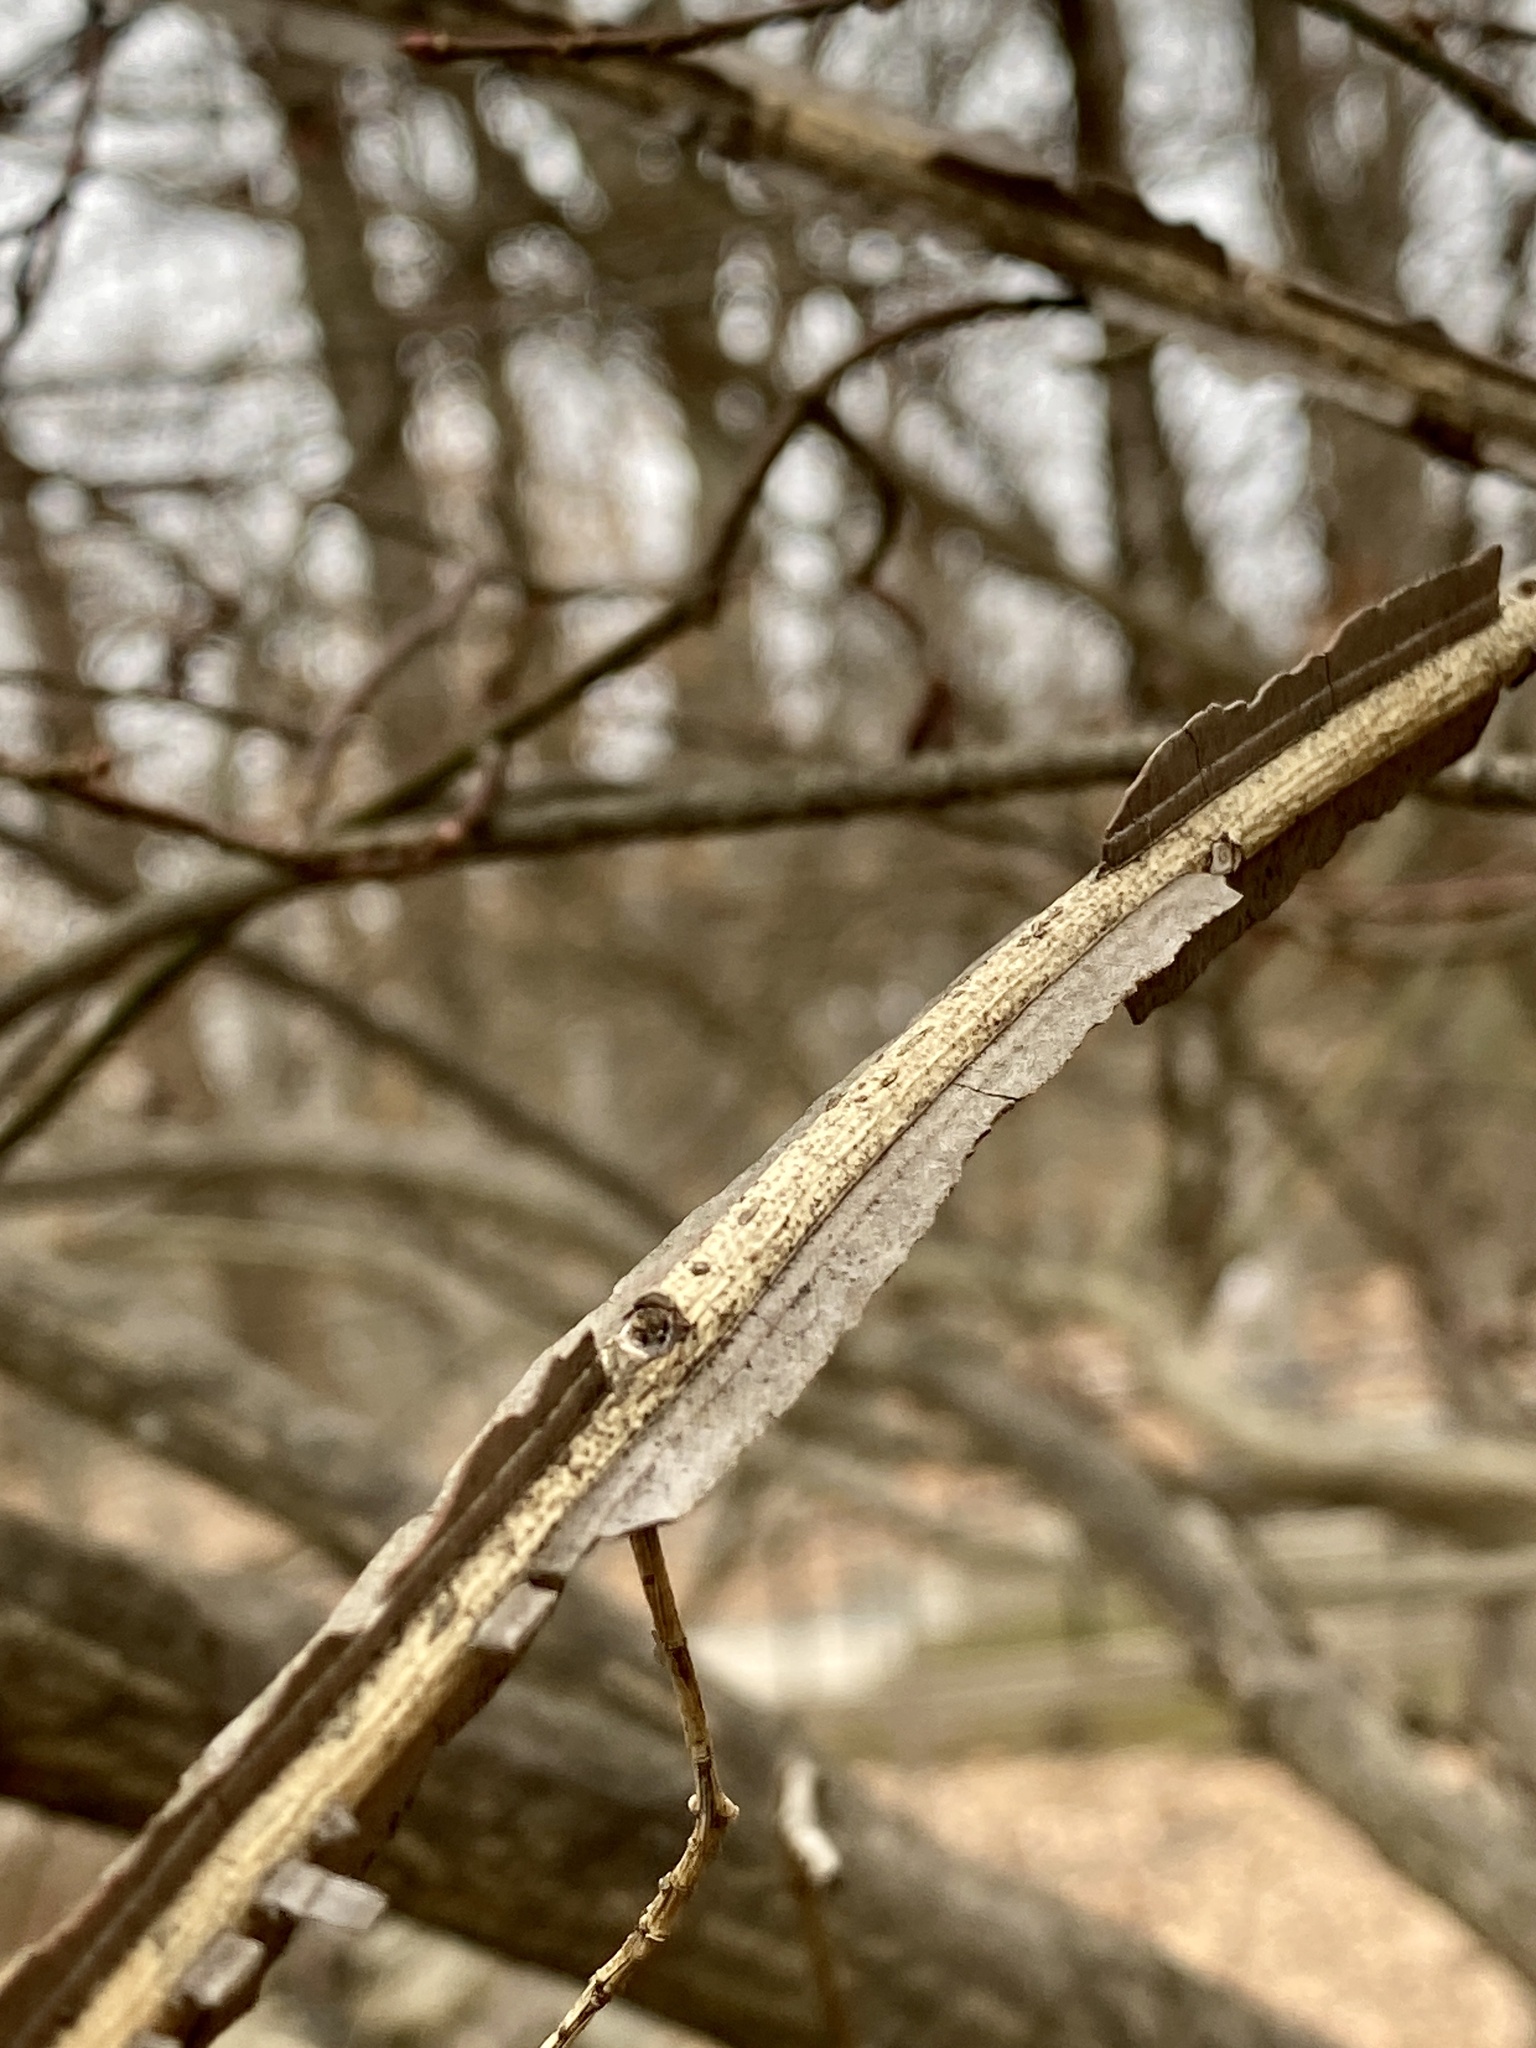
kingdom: Plantae
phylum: Tracheophyta
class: Magnoliopsida
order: Celastrales
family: Celastraceae
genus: Euonymus
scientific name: Euonymus alatus
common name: Winged euonymus
